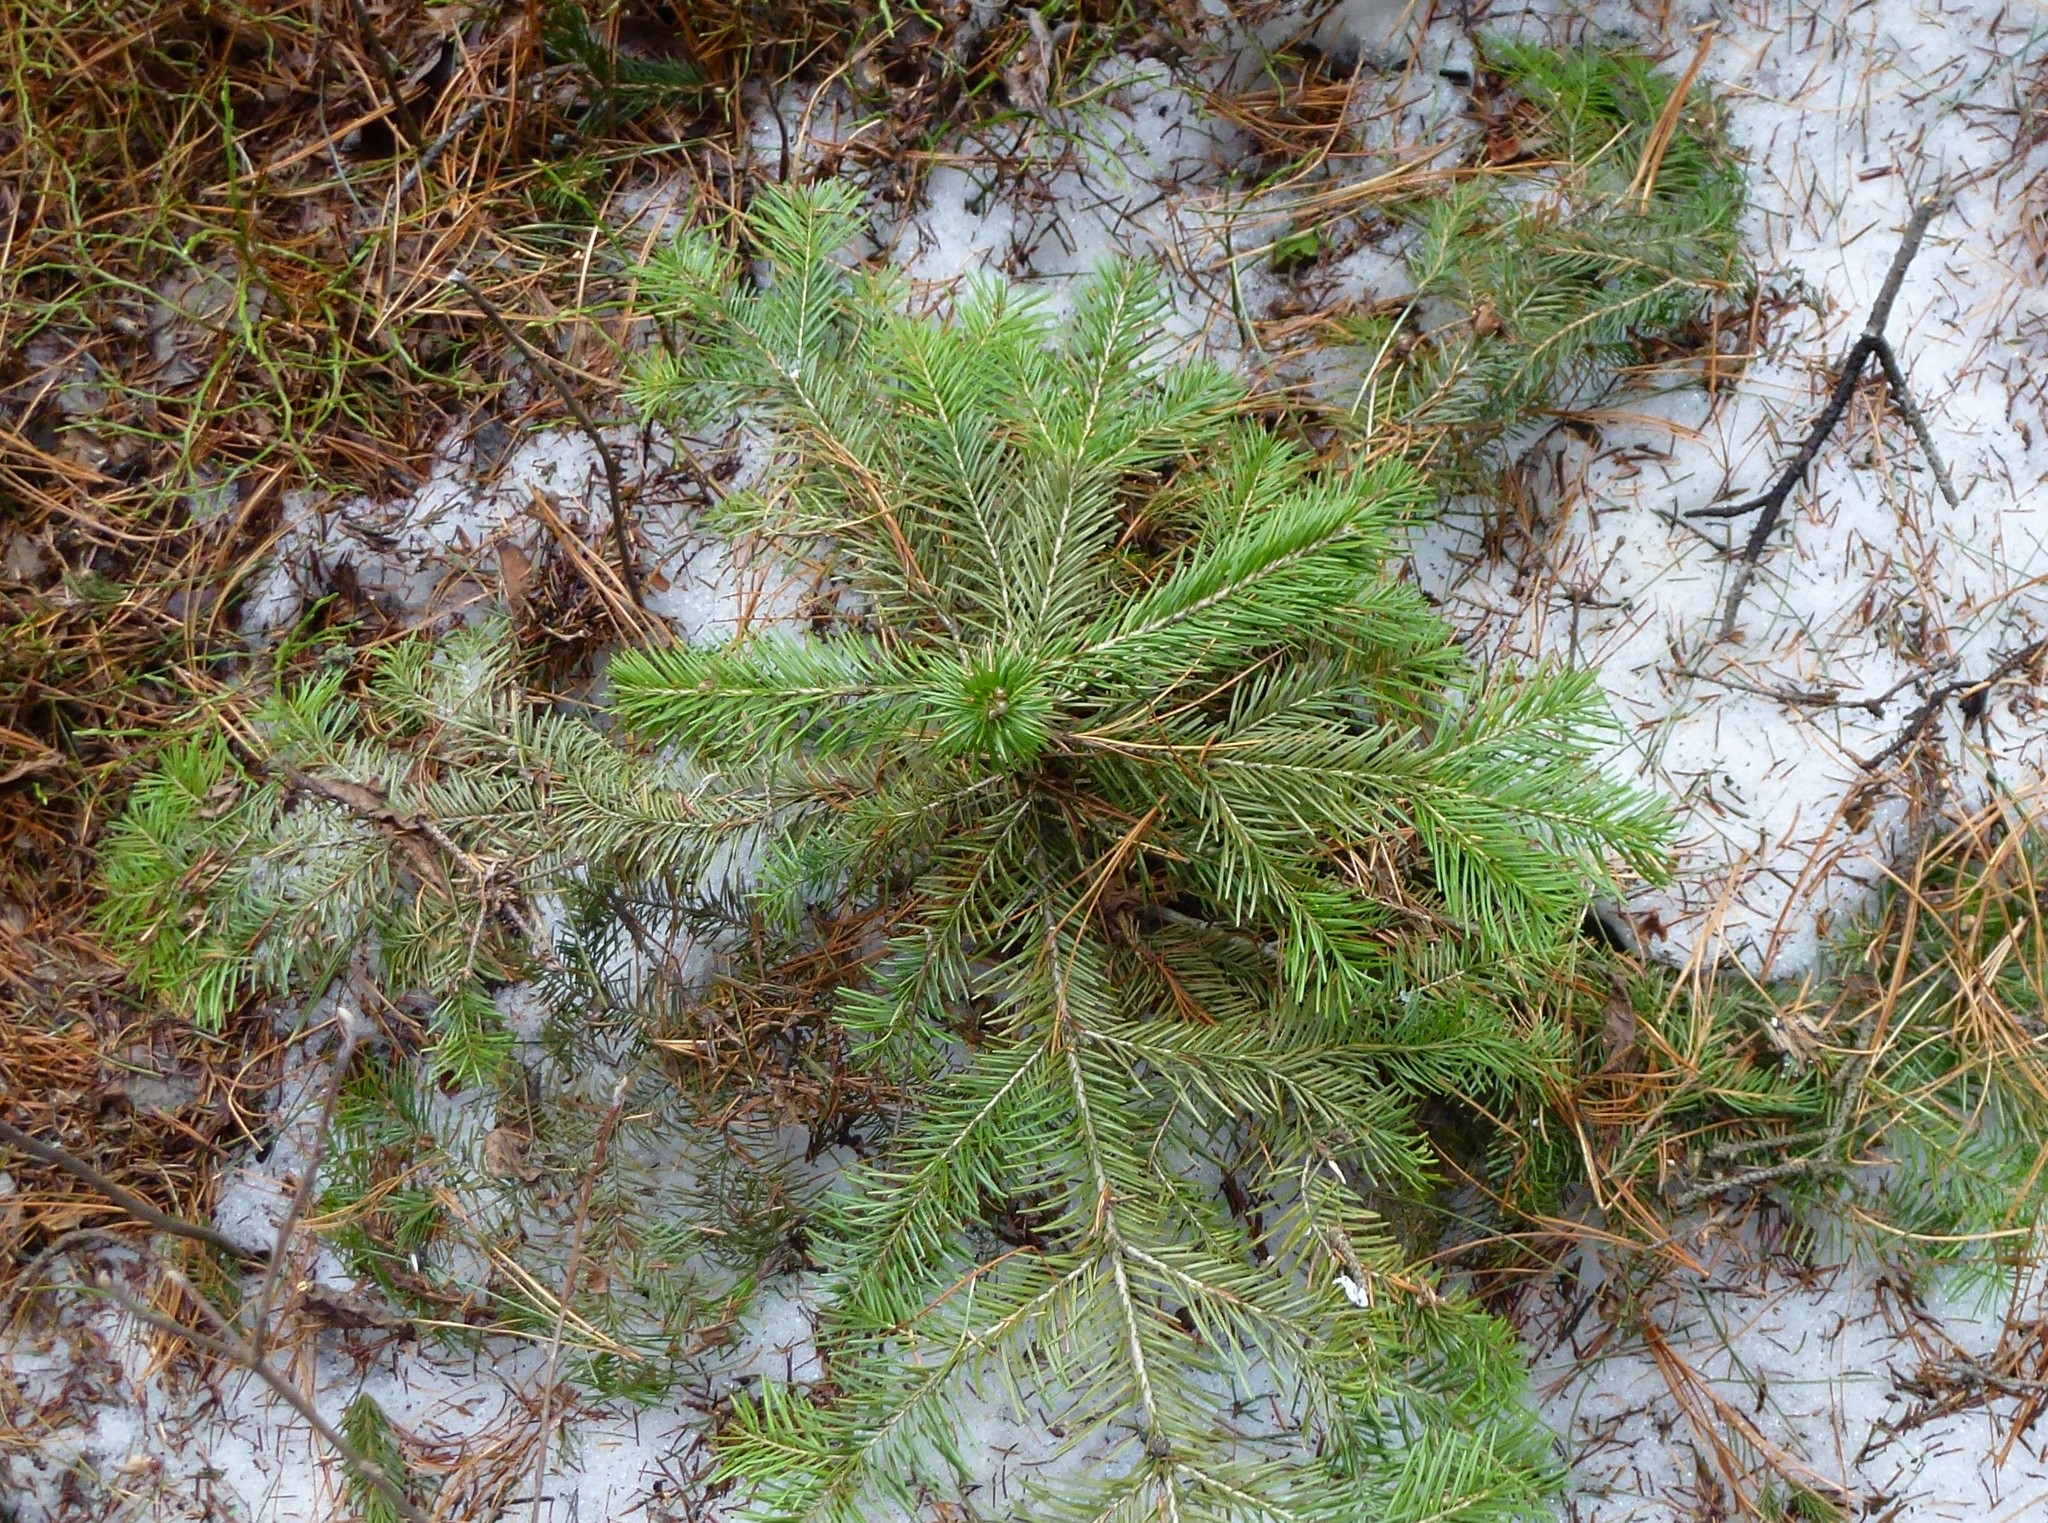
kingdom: Plantae
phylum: Tracheophyta
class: Pinopsida
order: Pinales
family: Pinaceae
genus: Abies
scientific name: Abies sibirica
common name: Siberian fir
